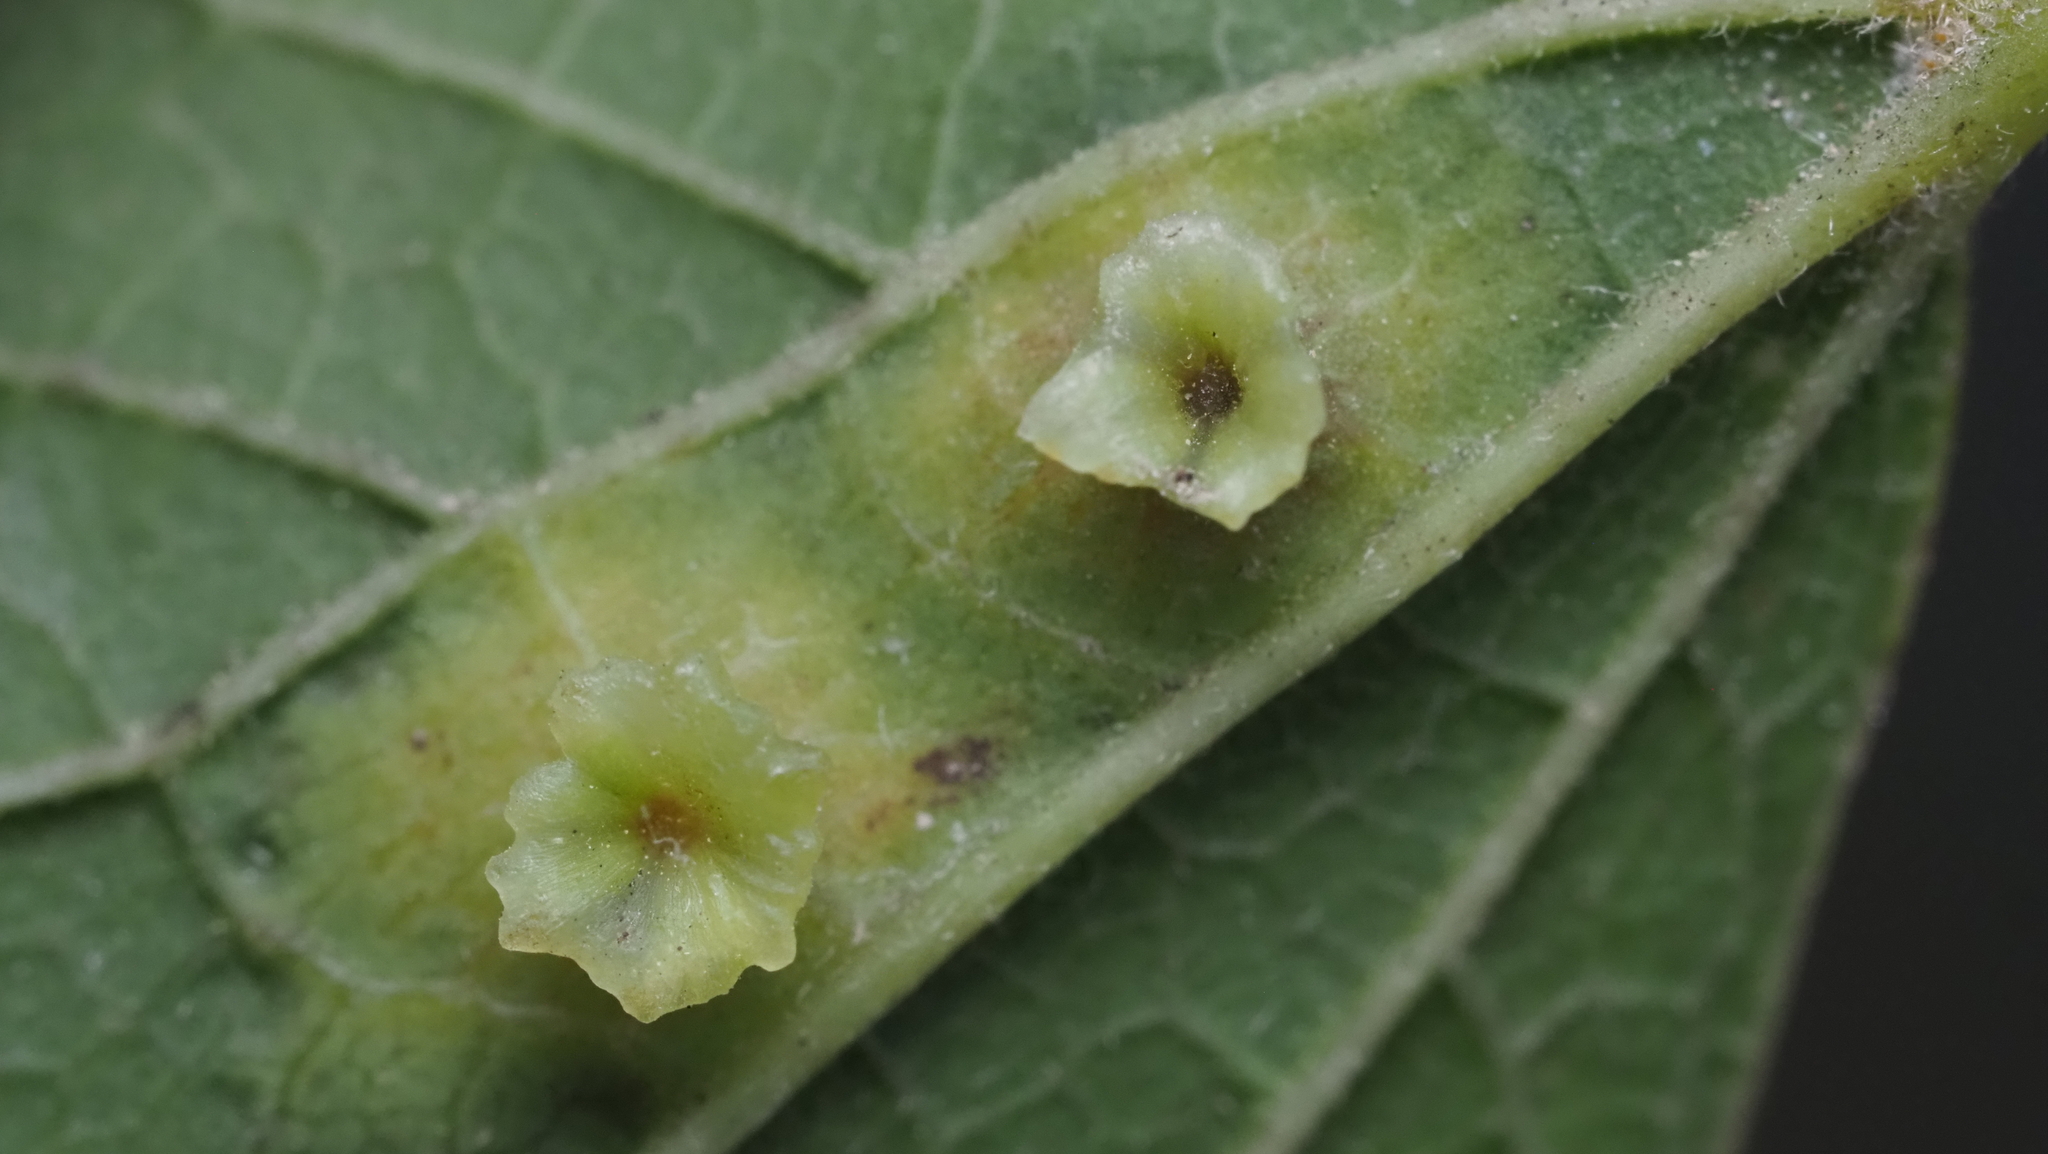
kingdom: Animalia
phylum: Arthropoda
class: Insecta
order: Hemiptera
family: Aphalaridae
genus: Pachypsylla
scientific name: Pachypsylla celtidisasterisca
